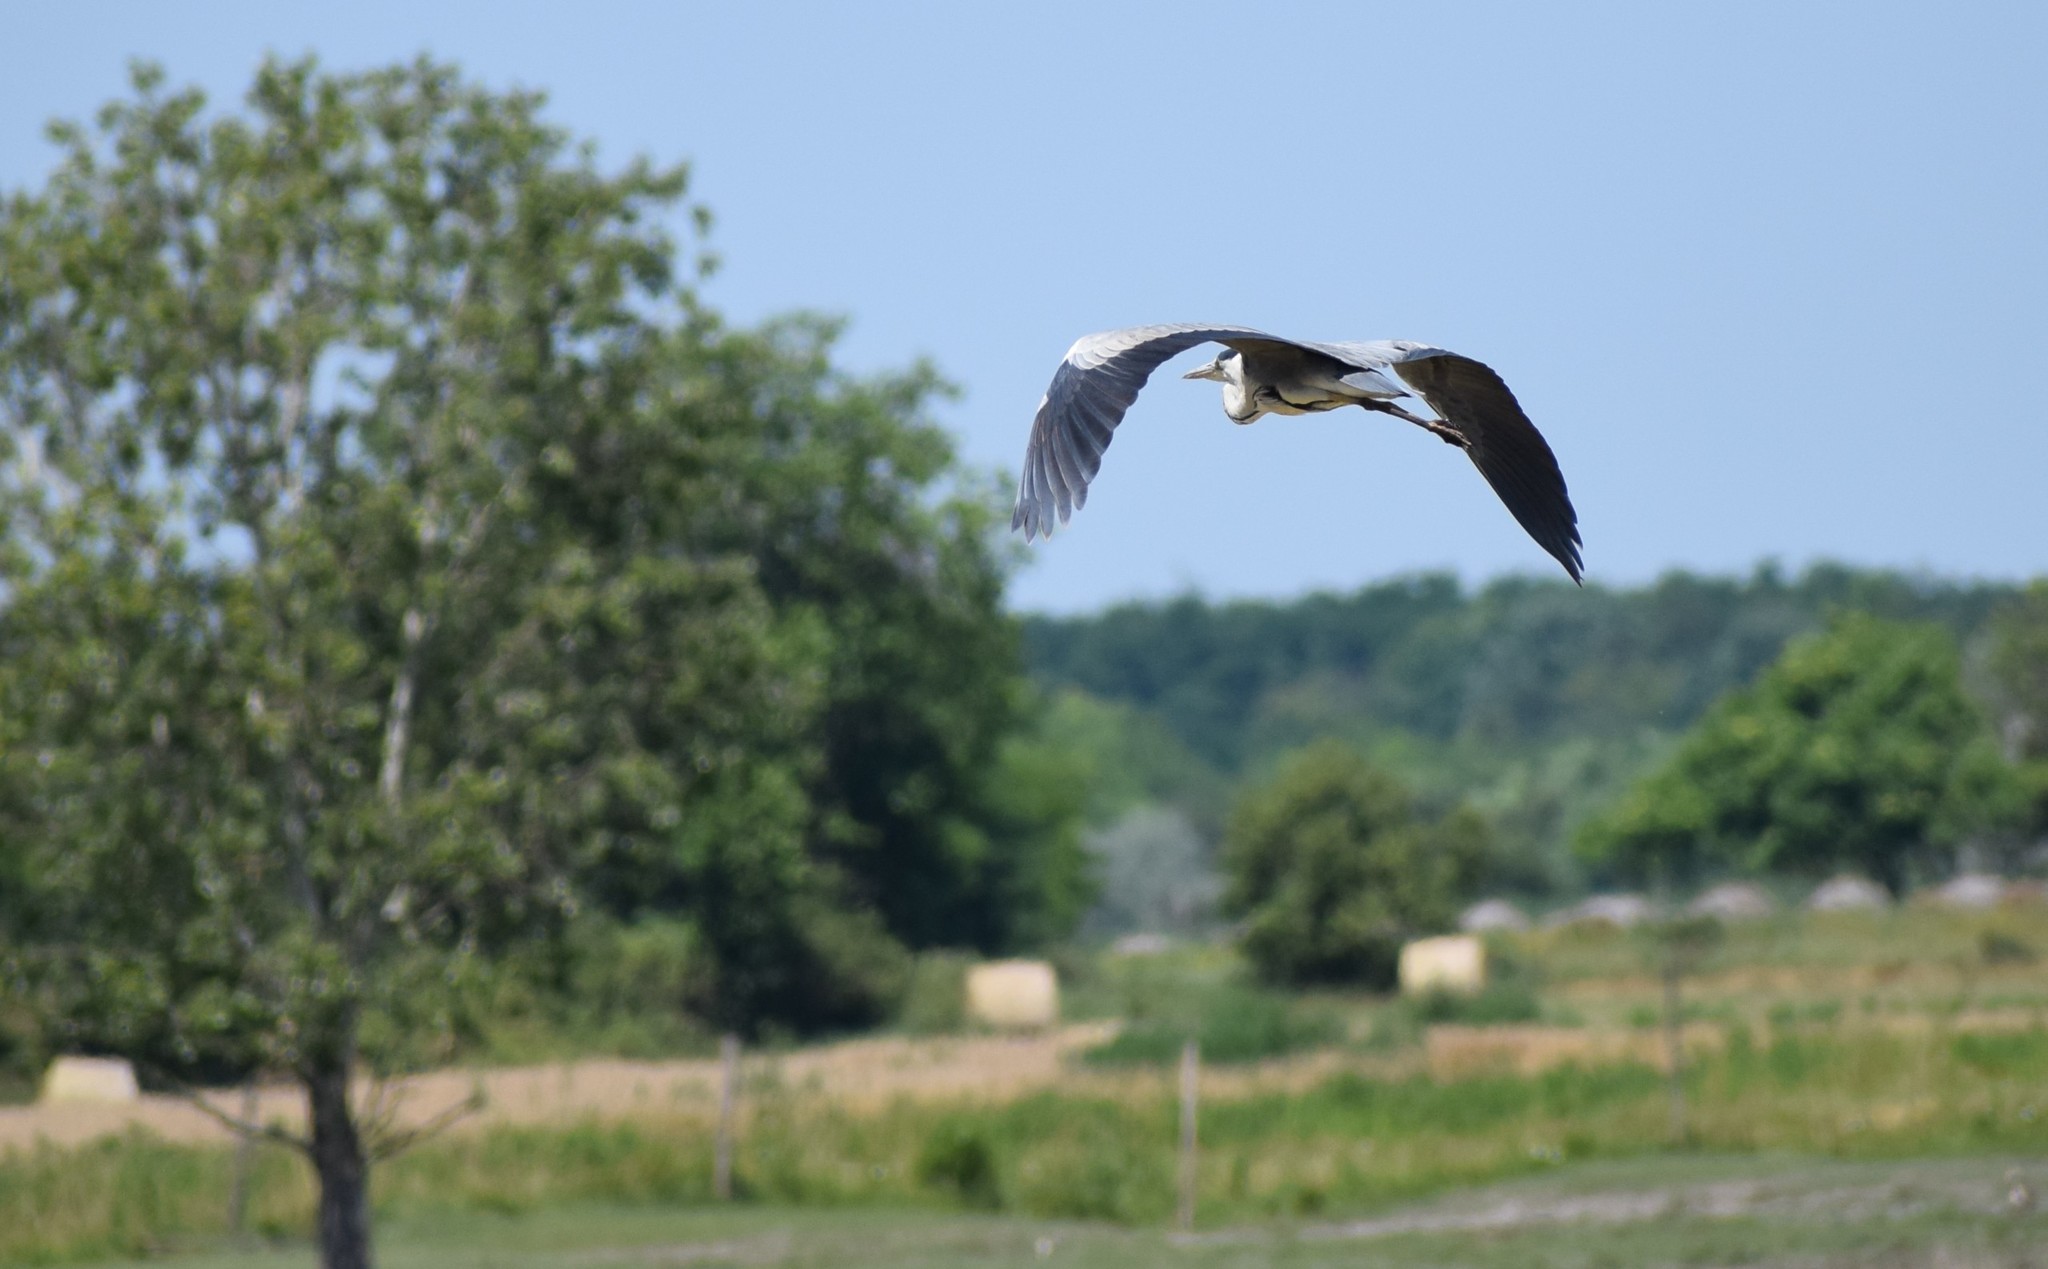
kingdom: Animalia
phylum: Chordata
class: Aves
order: Pelecaniformes
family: Ardeidae
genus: Ardea
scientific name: Ardea cinerea
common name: Grey heron
